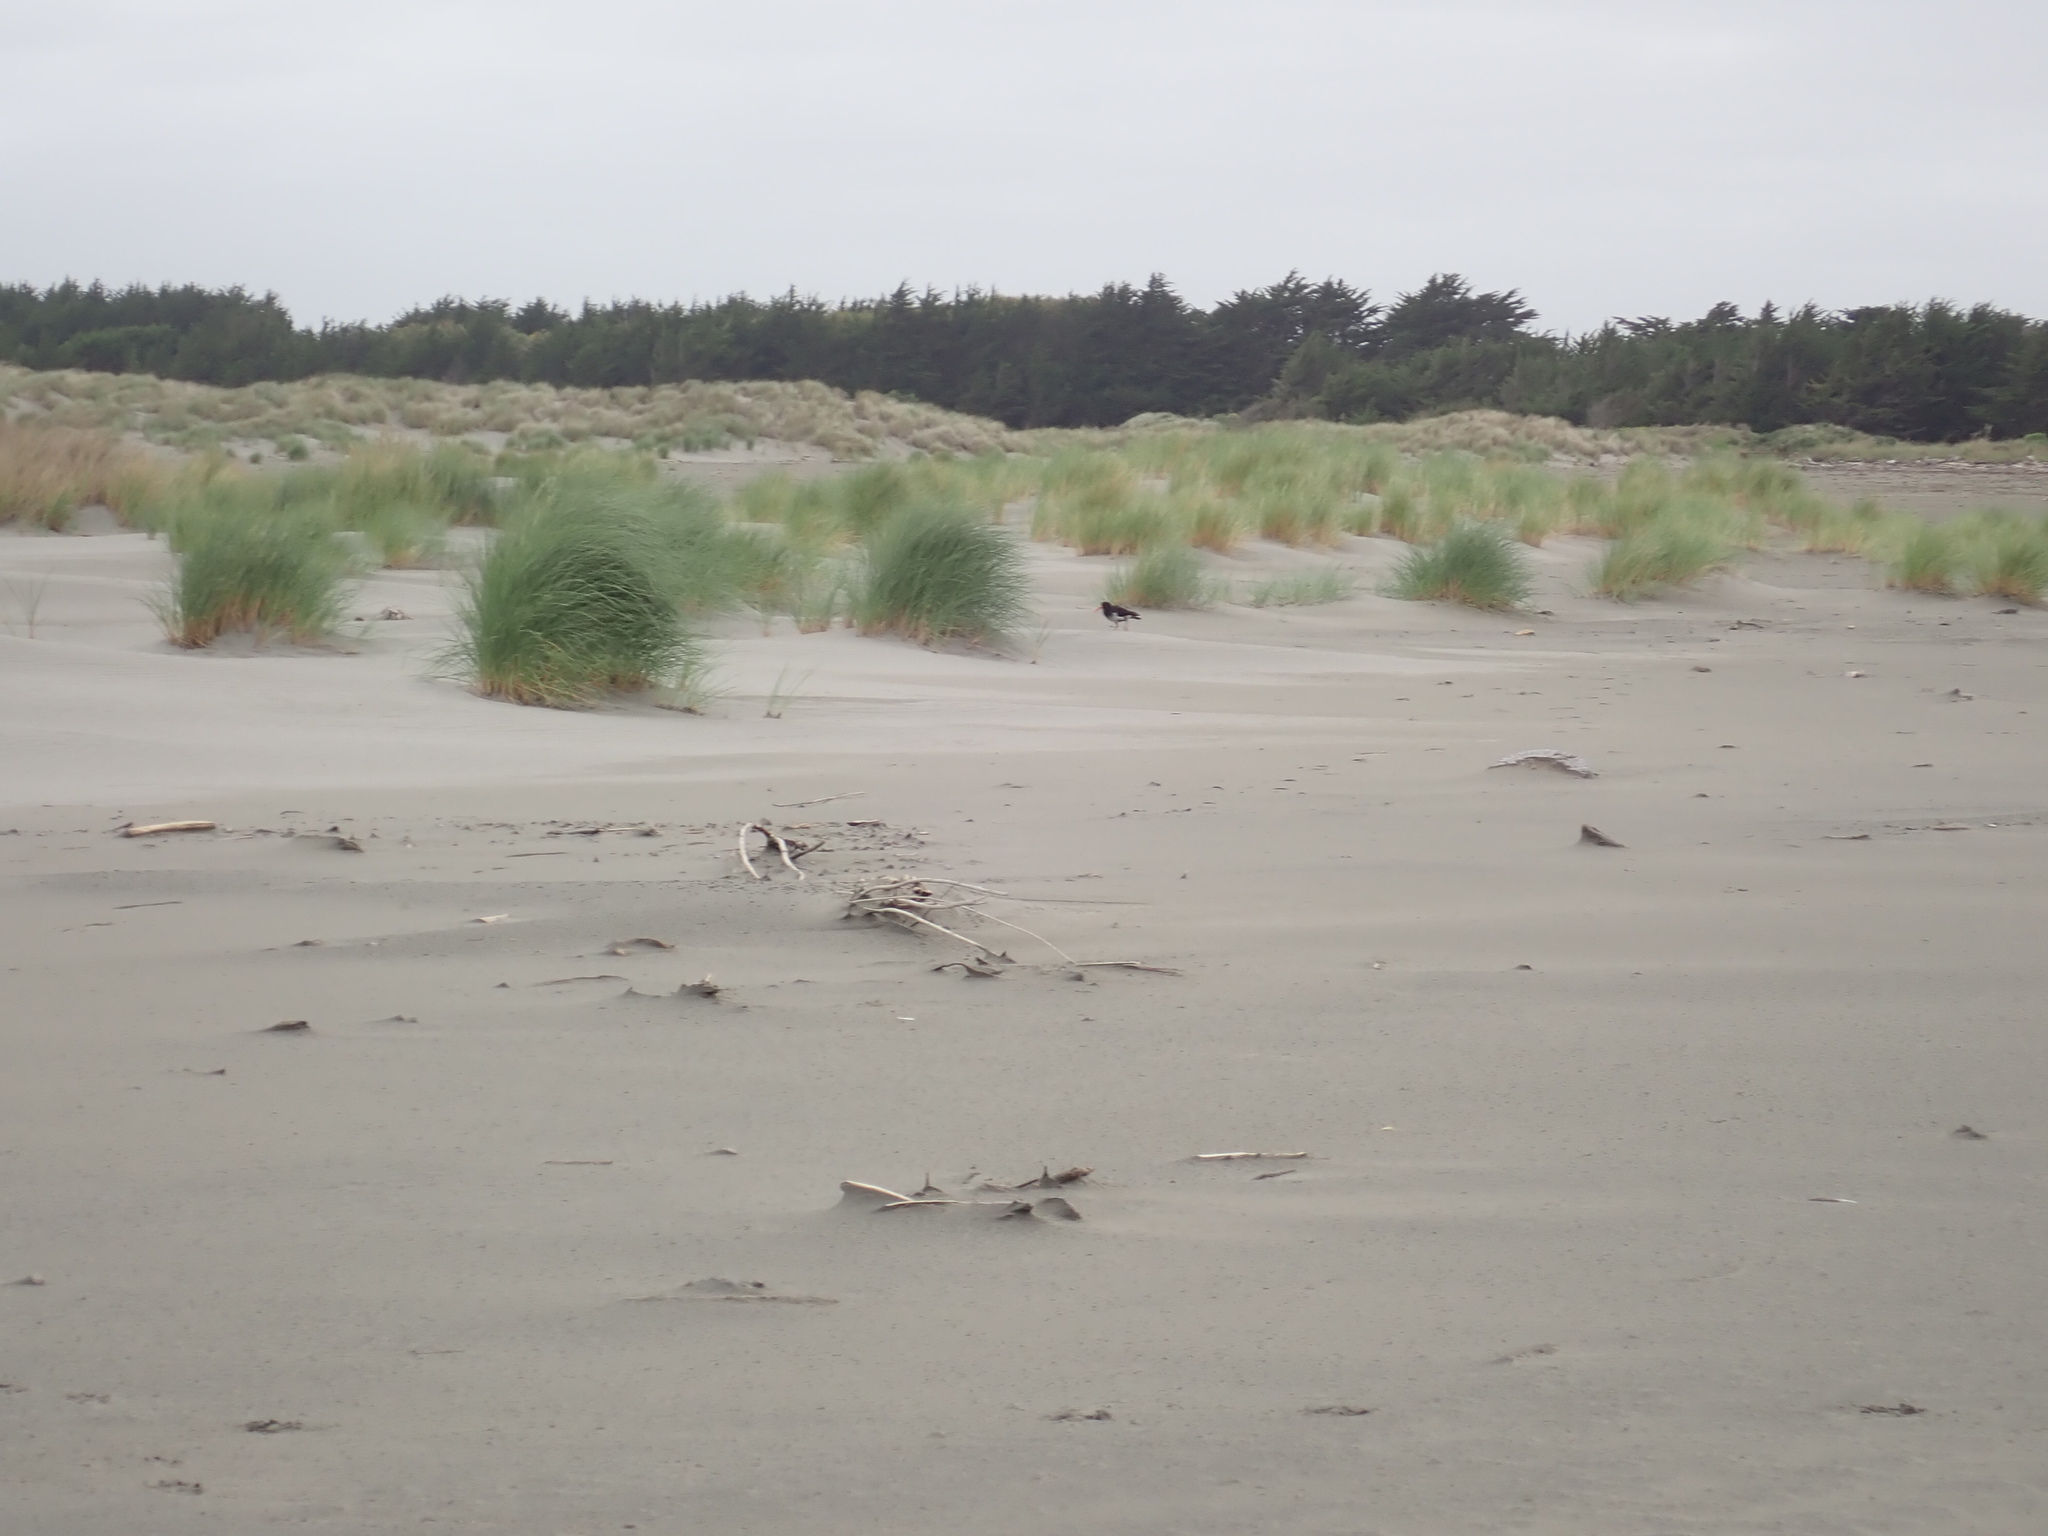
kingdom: Animalia
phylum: Chordata
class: Aves
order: Charadriiformes
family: Haematopodidae
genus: Haematopus
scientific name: Haematopus unicolor
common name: Variable oystercatcher
